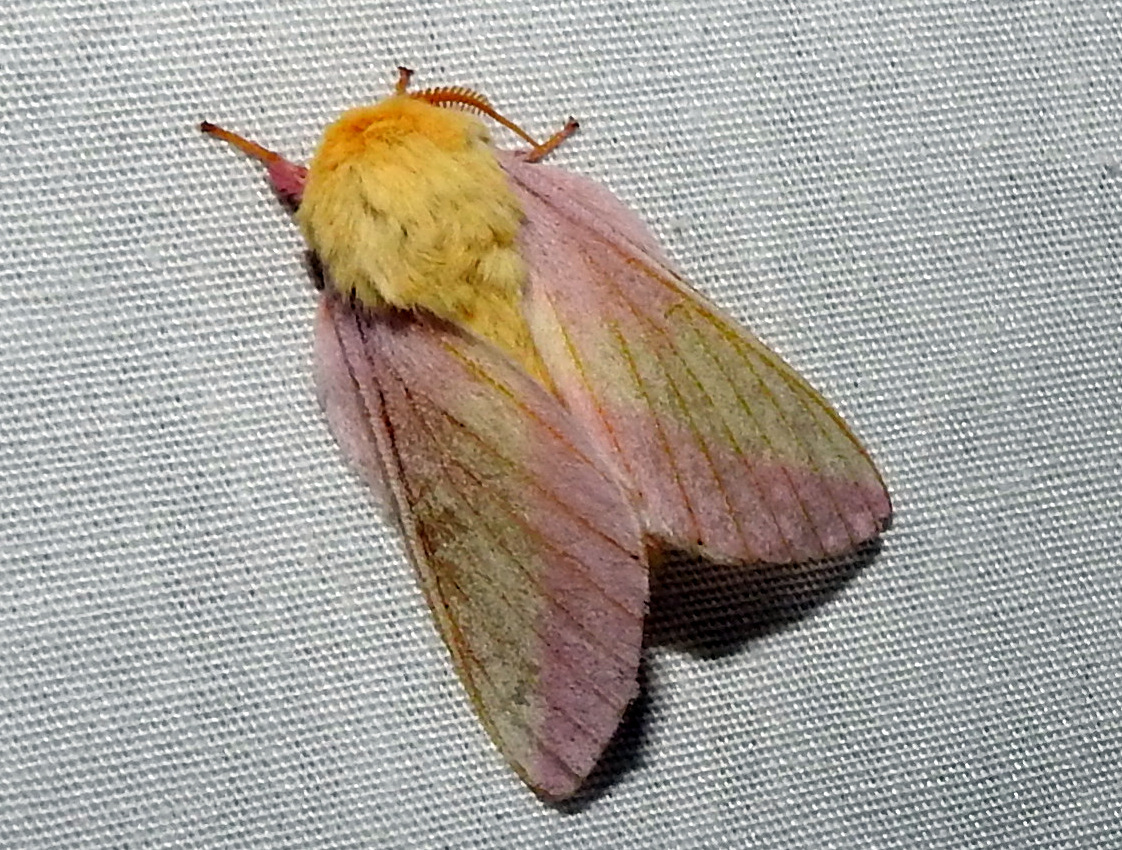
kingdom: Animalia
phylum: Arthropoda
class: Insecta
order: Lepidoptera
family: Saturniidae
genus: Dryocampa
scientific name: Dryocampa rubicunda
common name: Rosy maple moth
